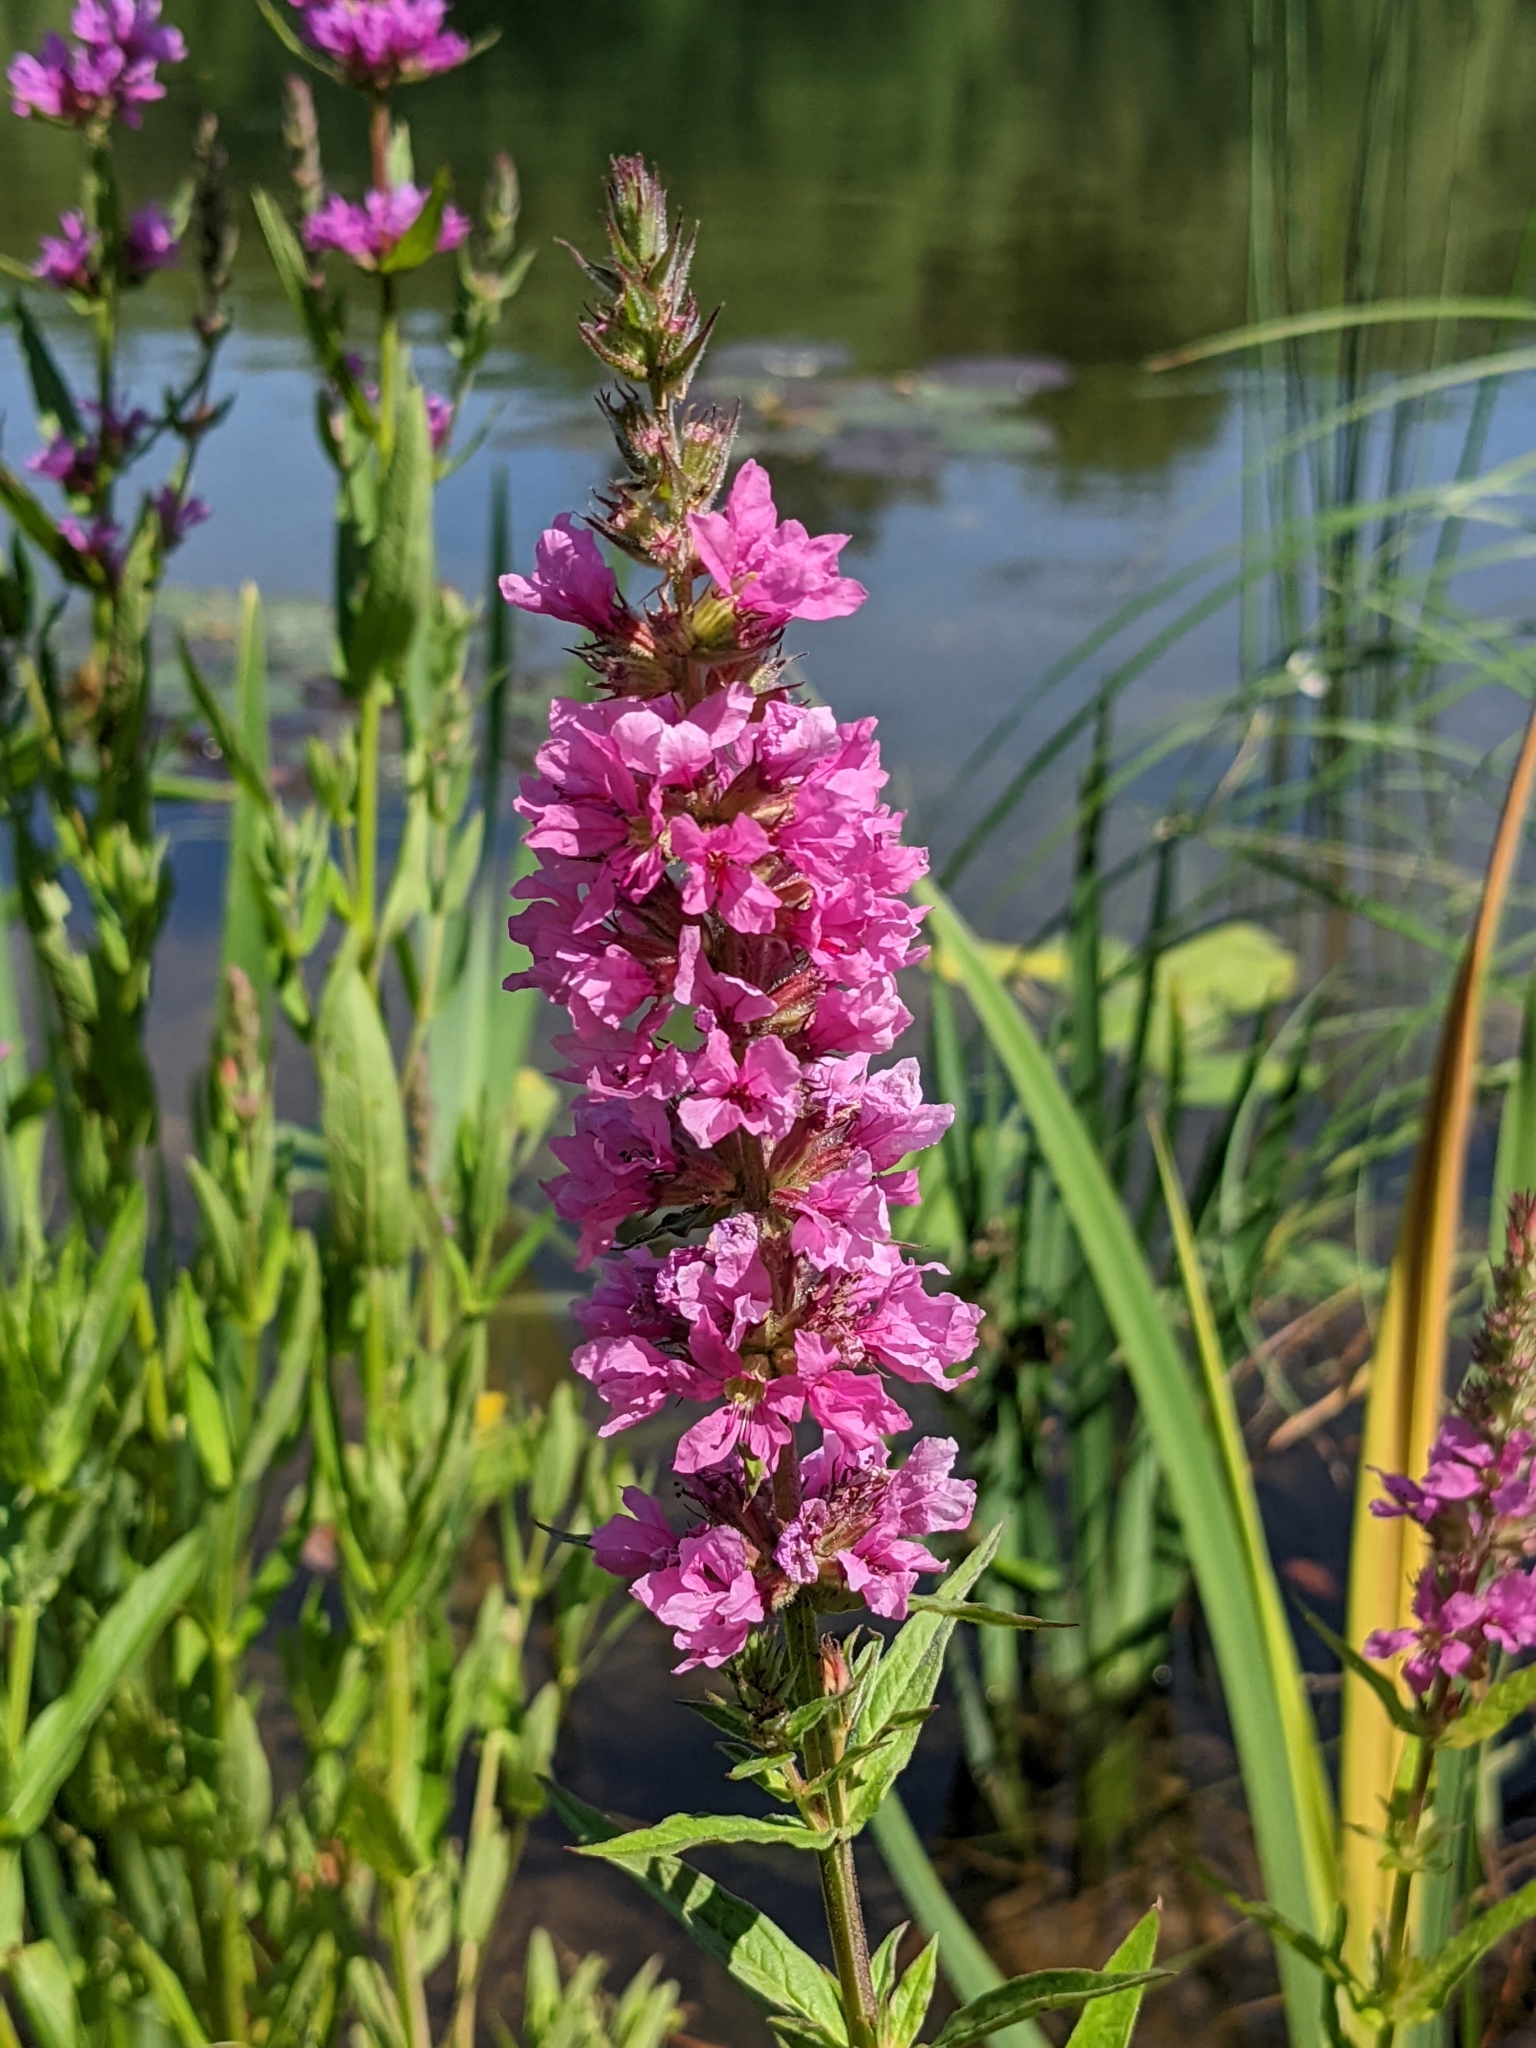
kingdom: Plantae
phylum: Tracheophyta
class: Magnoliopsida
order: Myrtales
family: Lythraceae
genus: Lythrum
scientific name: Lythrum salicaria
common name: Purple loosestrife
